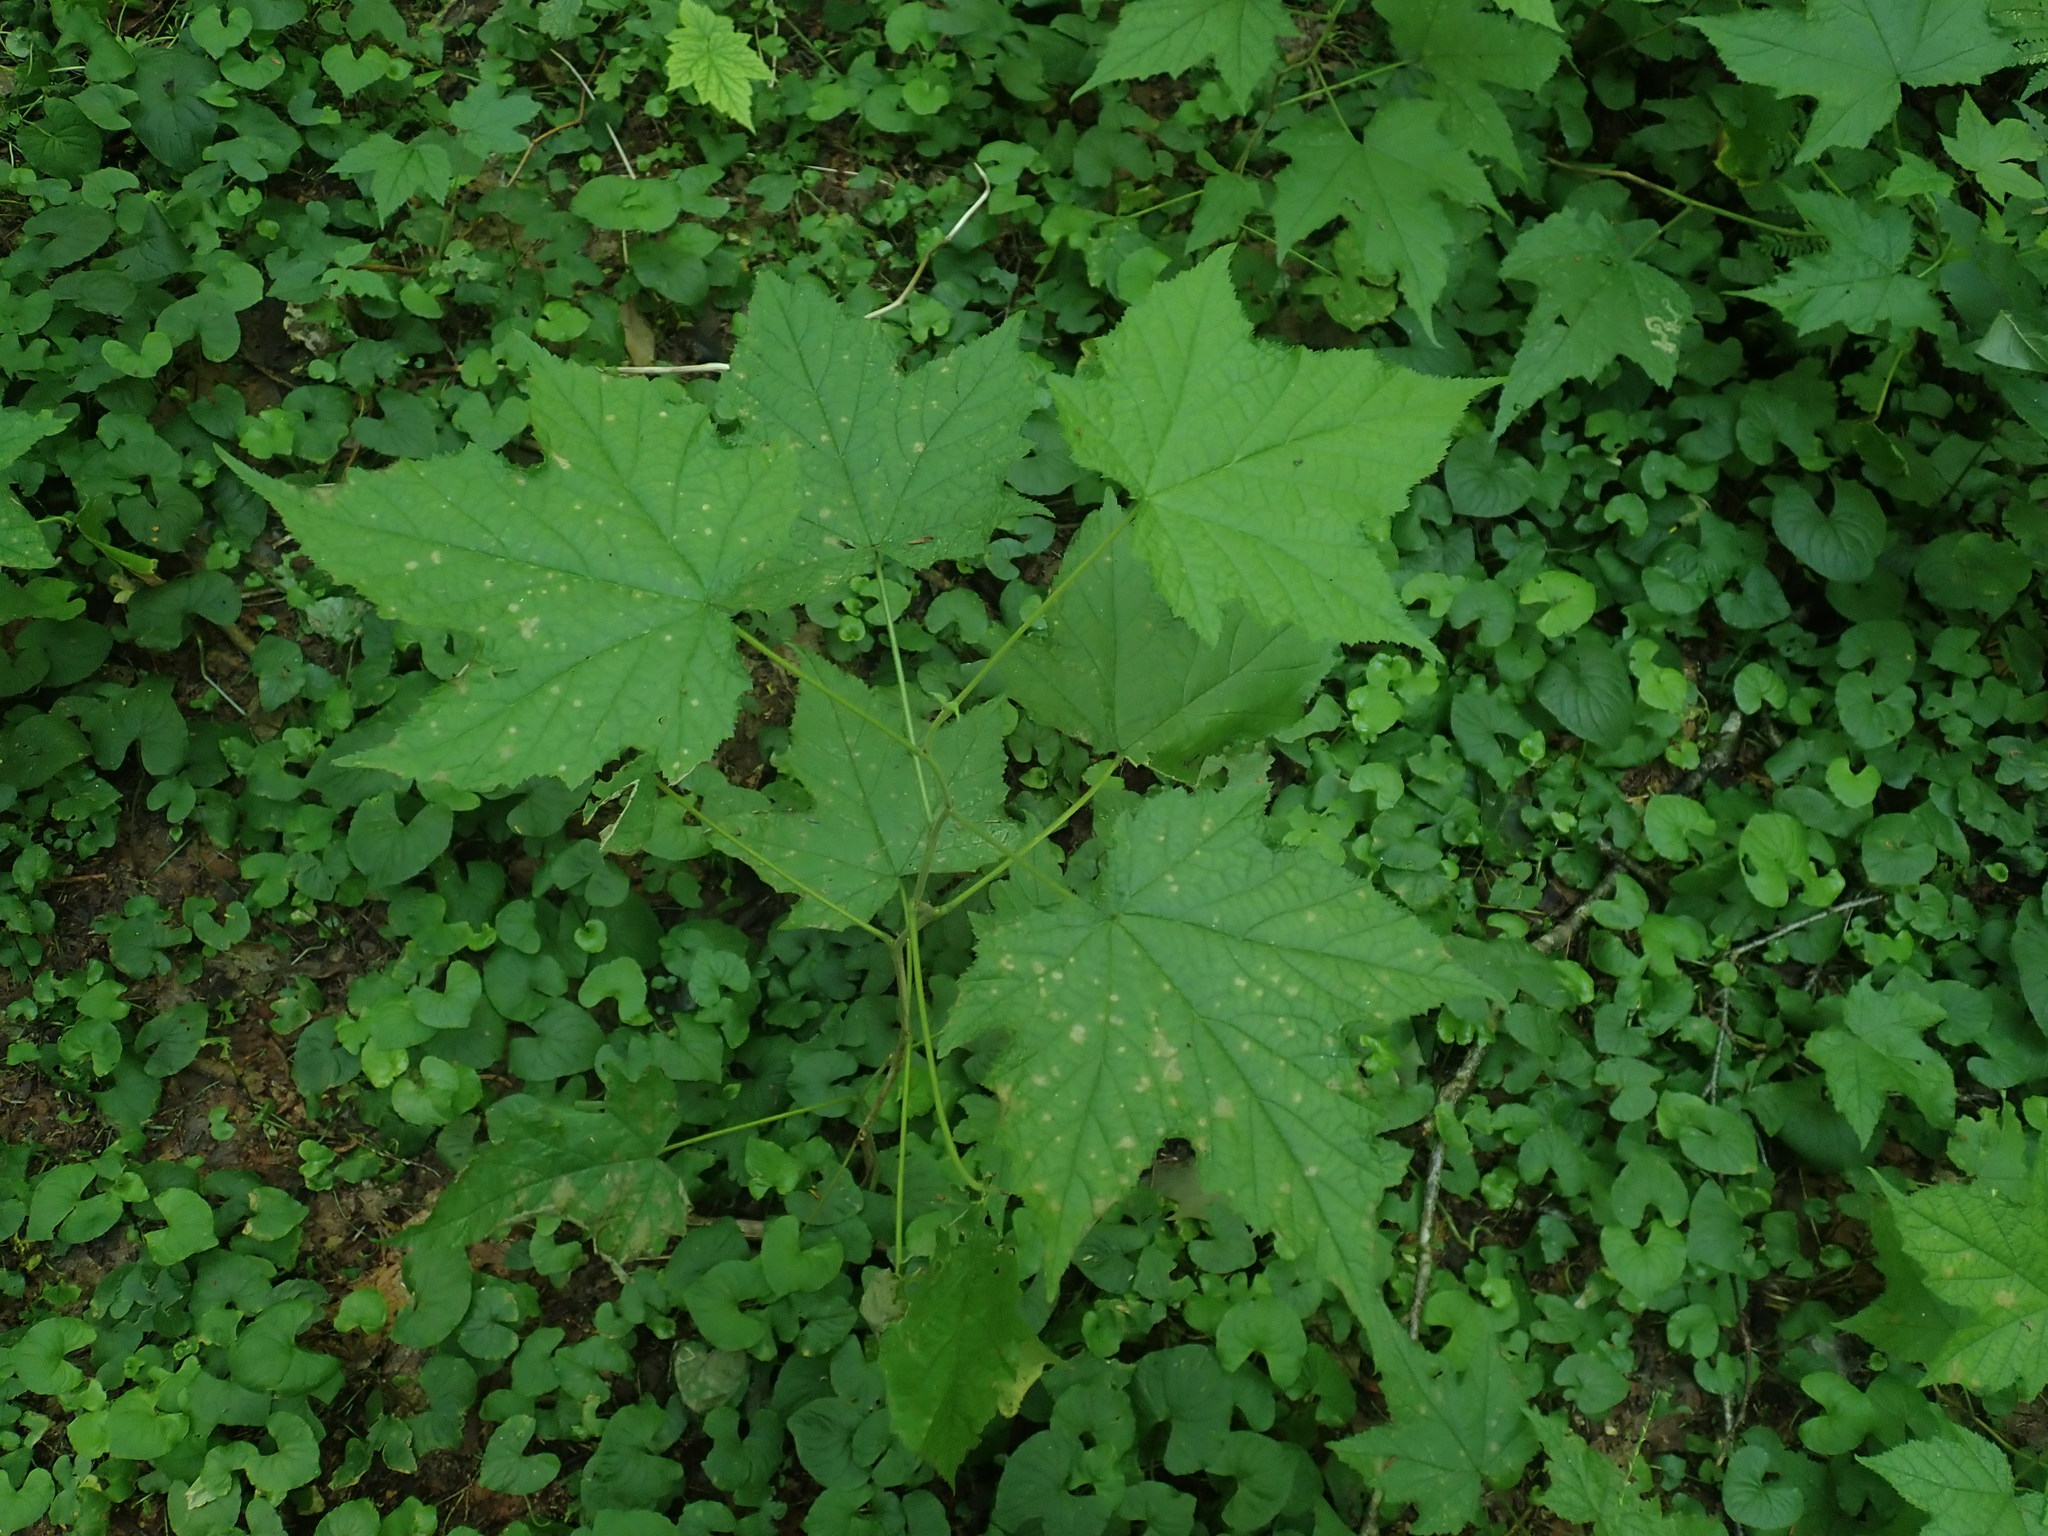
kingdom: Plantae
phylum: Tracheophyta
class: Magnoliopsida
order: Rosales
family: Rosaceae
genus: Rubus
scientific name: Rubus odoratus
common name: Purple-flowered raspberry
